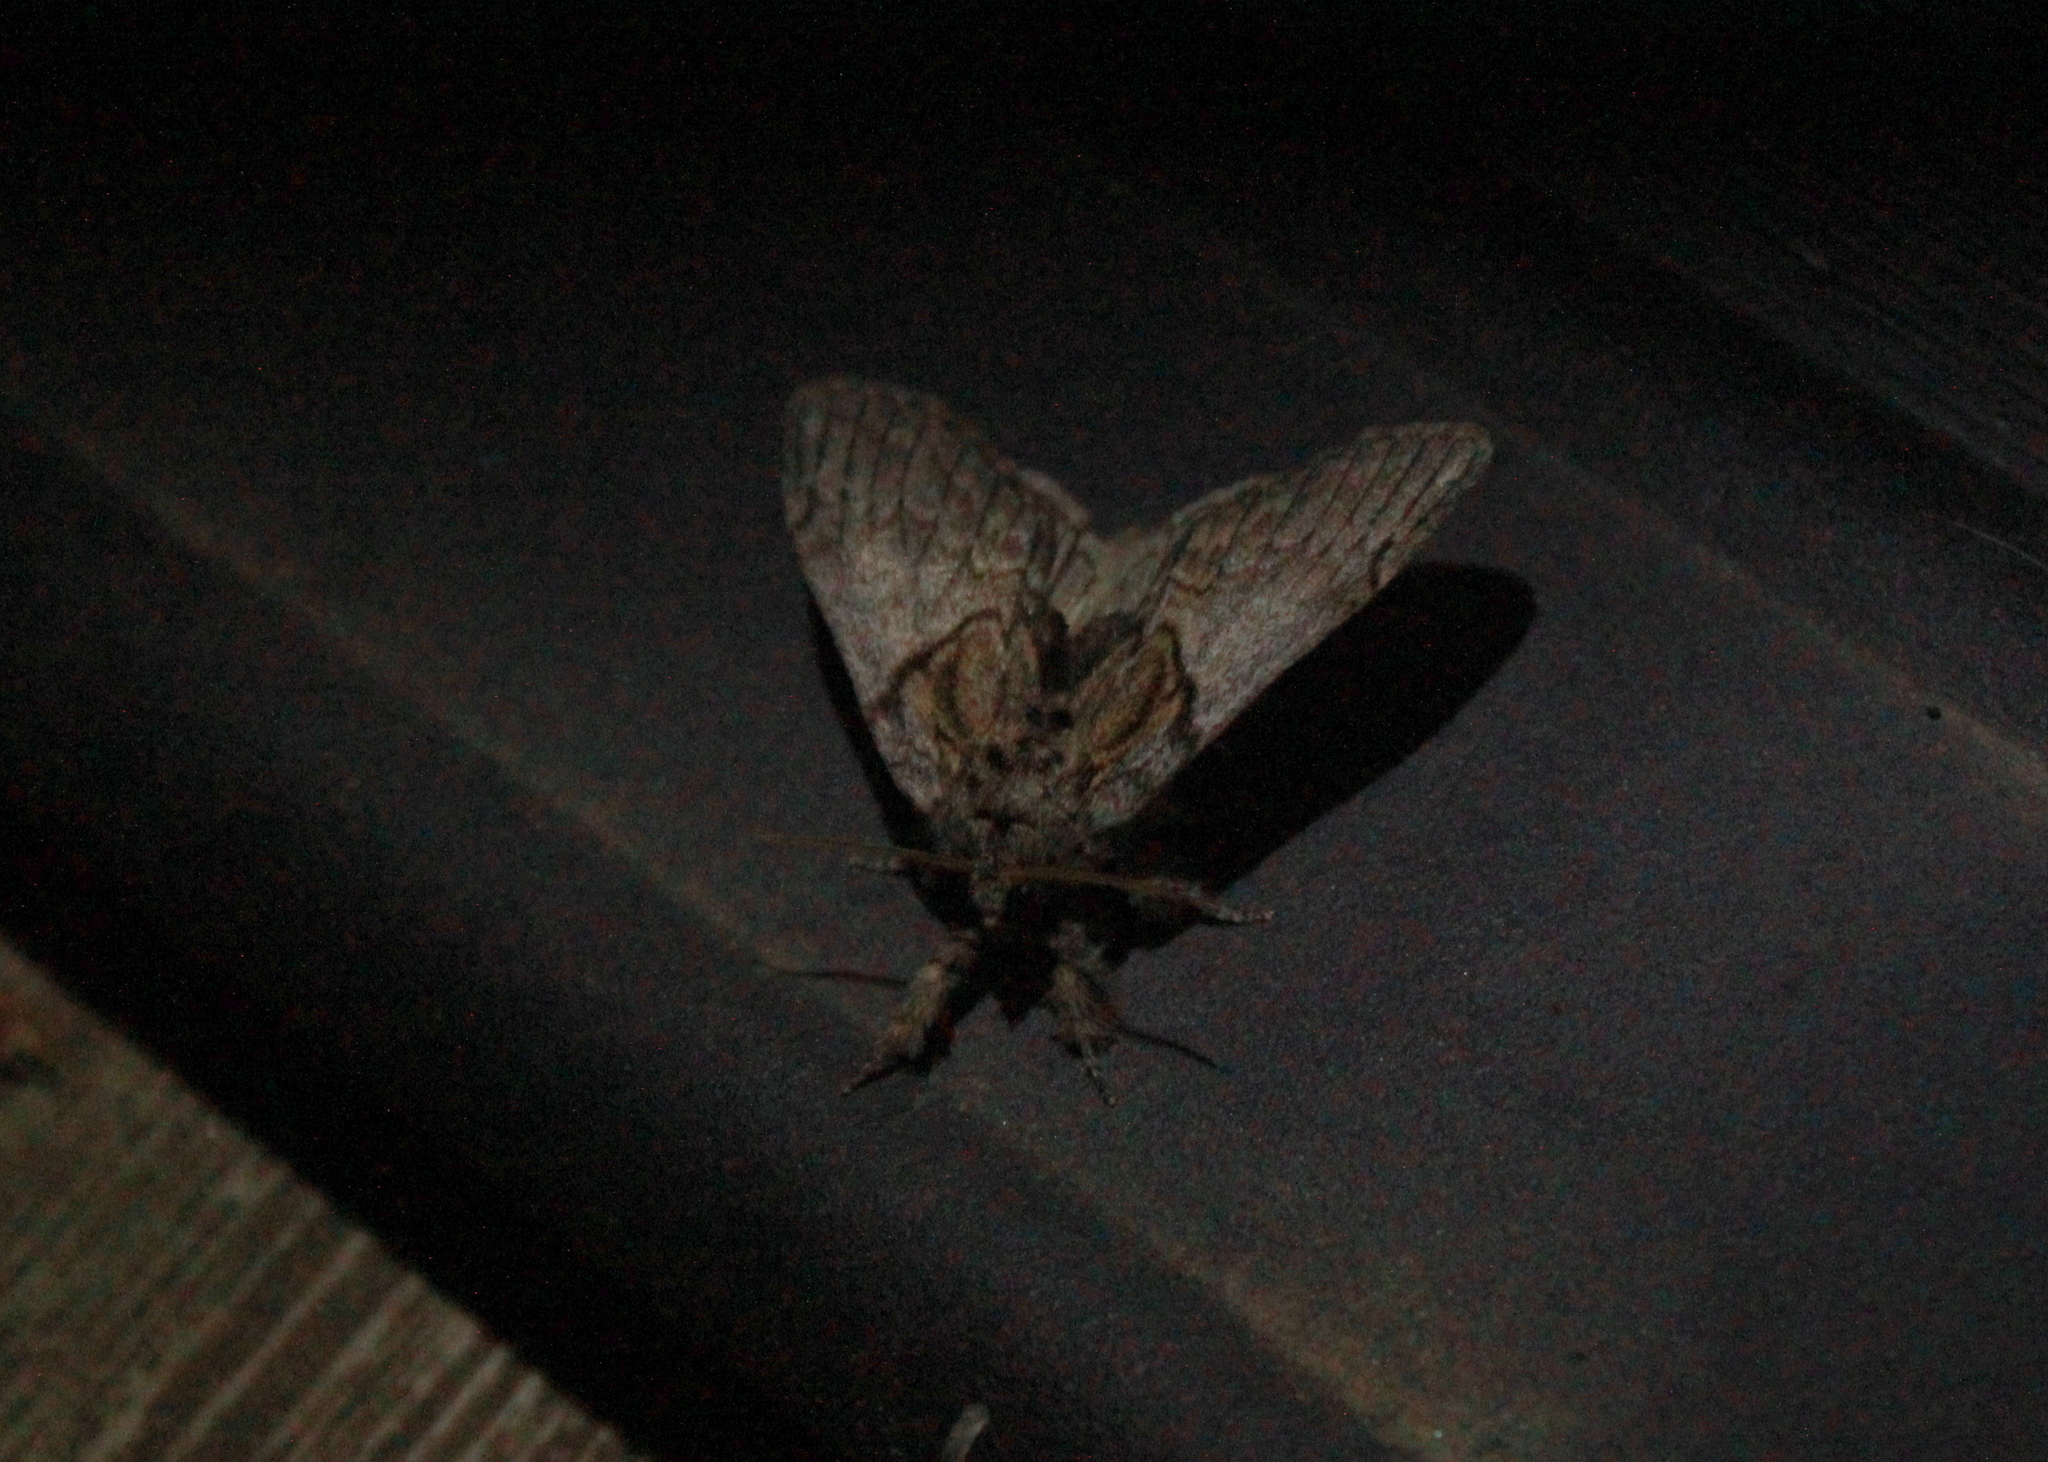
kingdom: Animalia
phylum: Arthropoda
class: Insecta
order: Lepidoptera
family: Notodontidae
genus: Peridea
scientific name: Peridea basitriens
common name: Oval-based prominent
